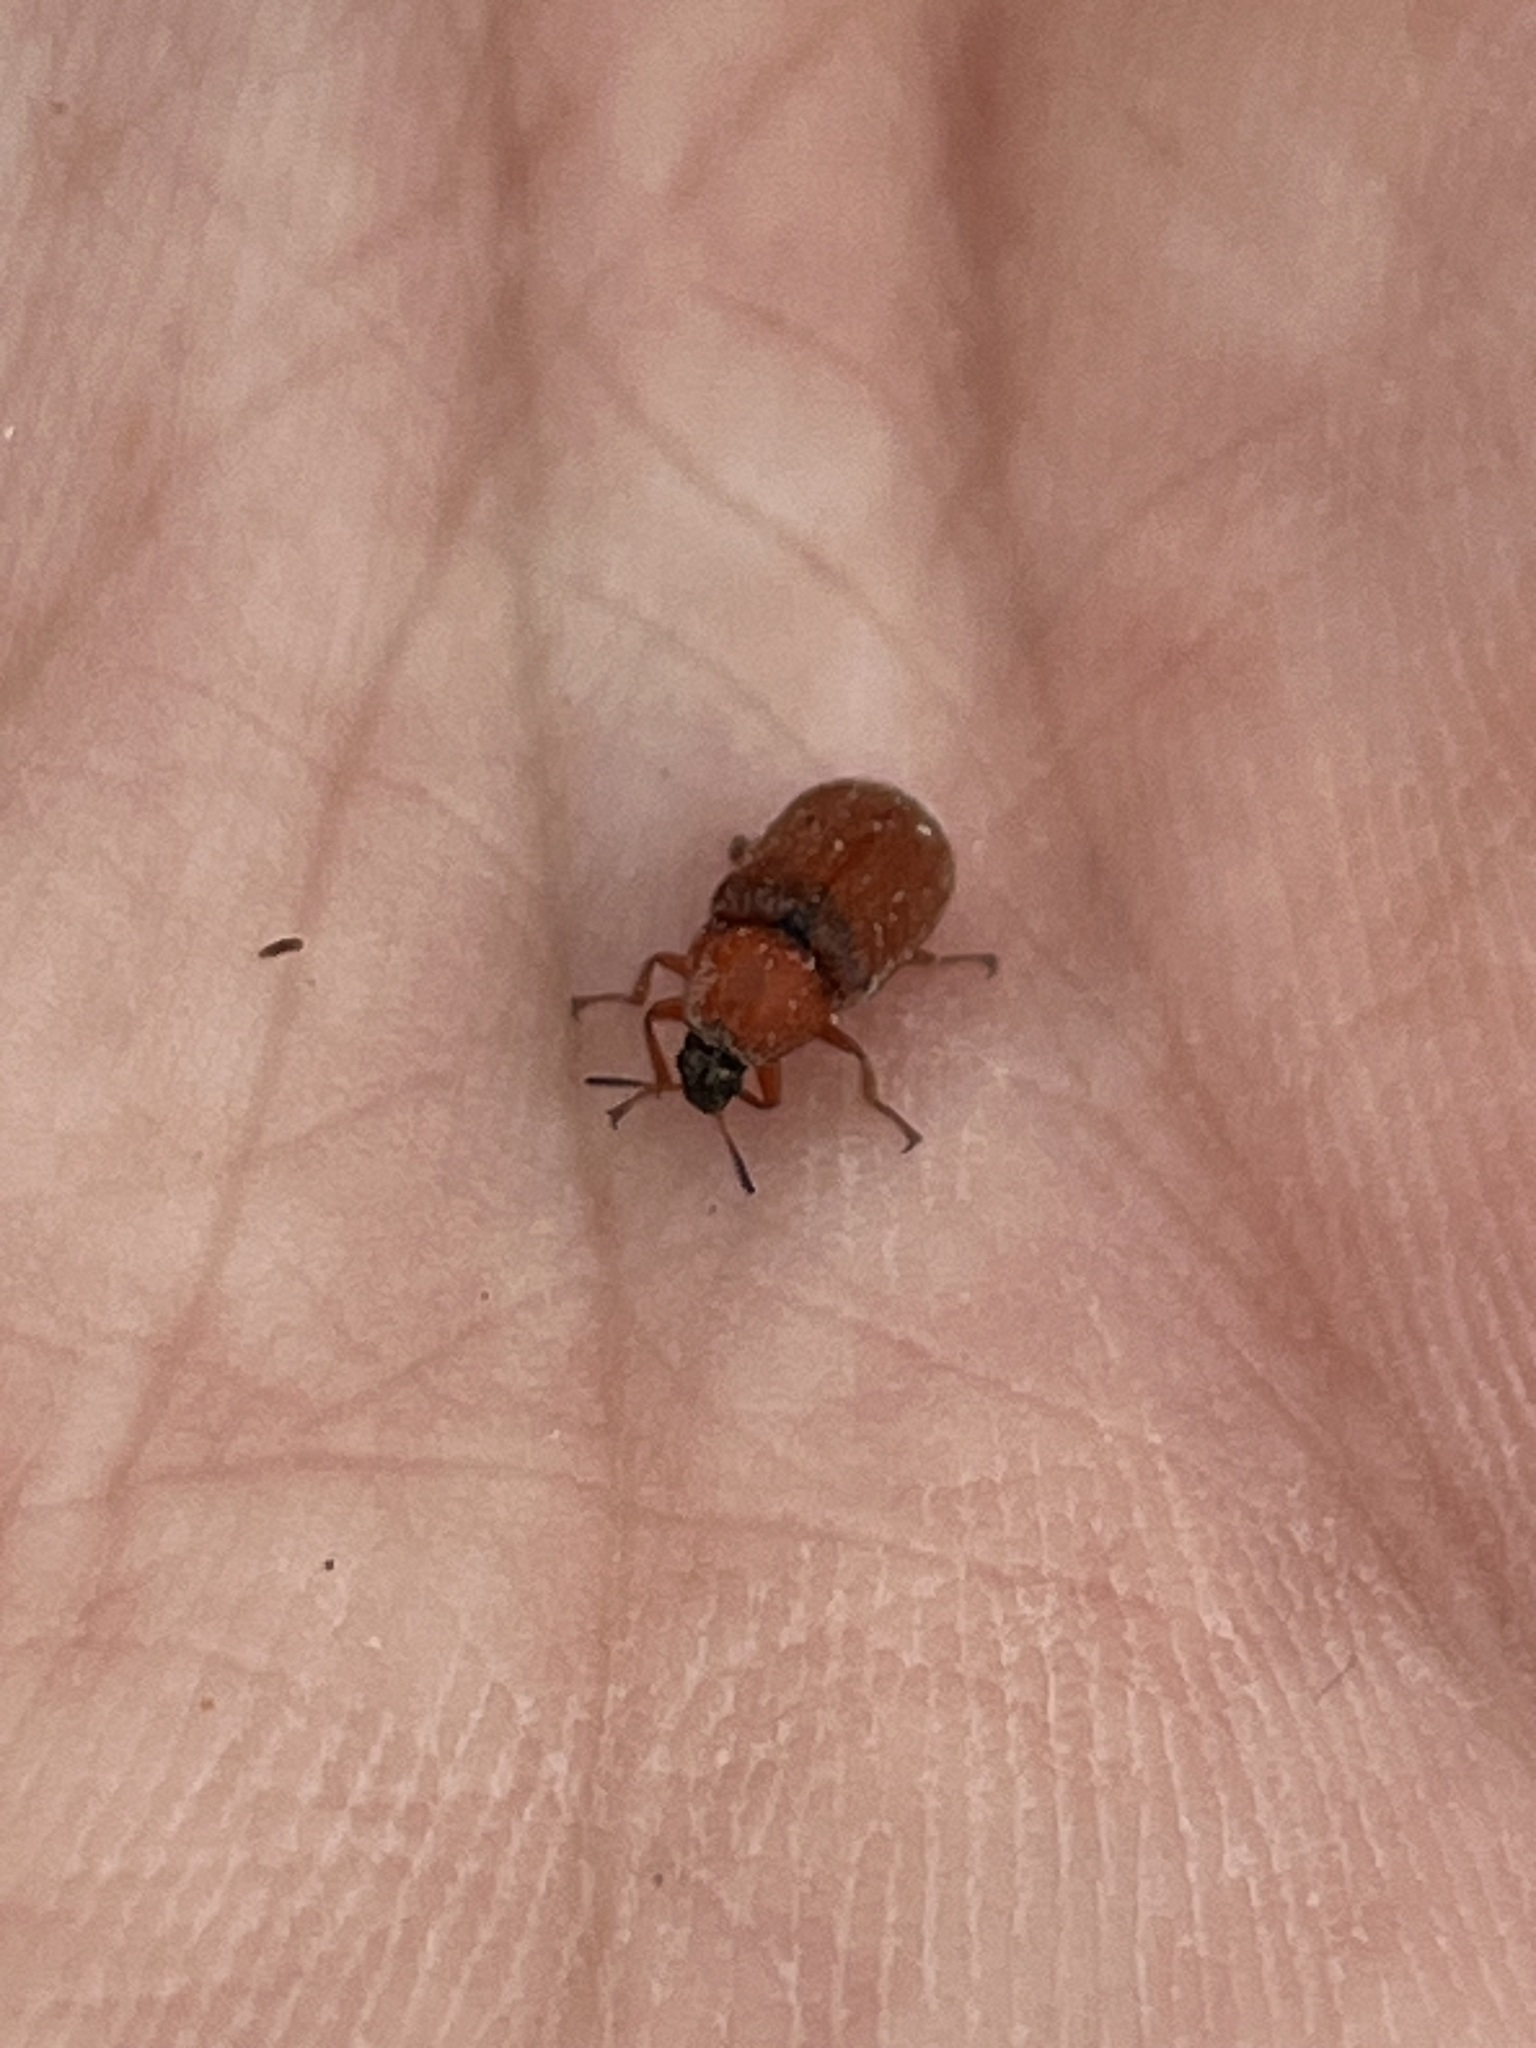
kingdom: Animalia
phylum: Arthropoda
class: Insecta
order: Coleoptera
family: Melyridae
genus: Melyris
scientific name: Melyris
